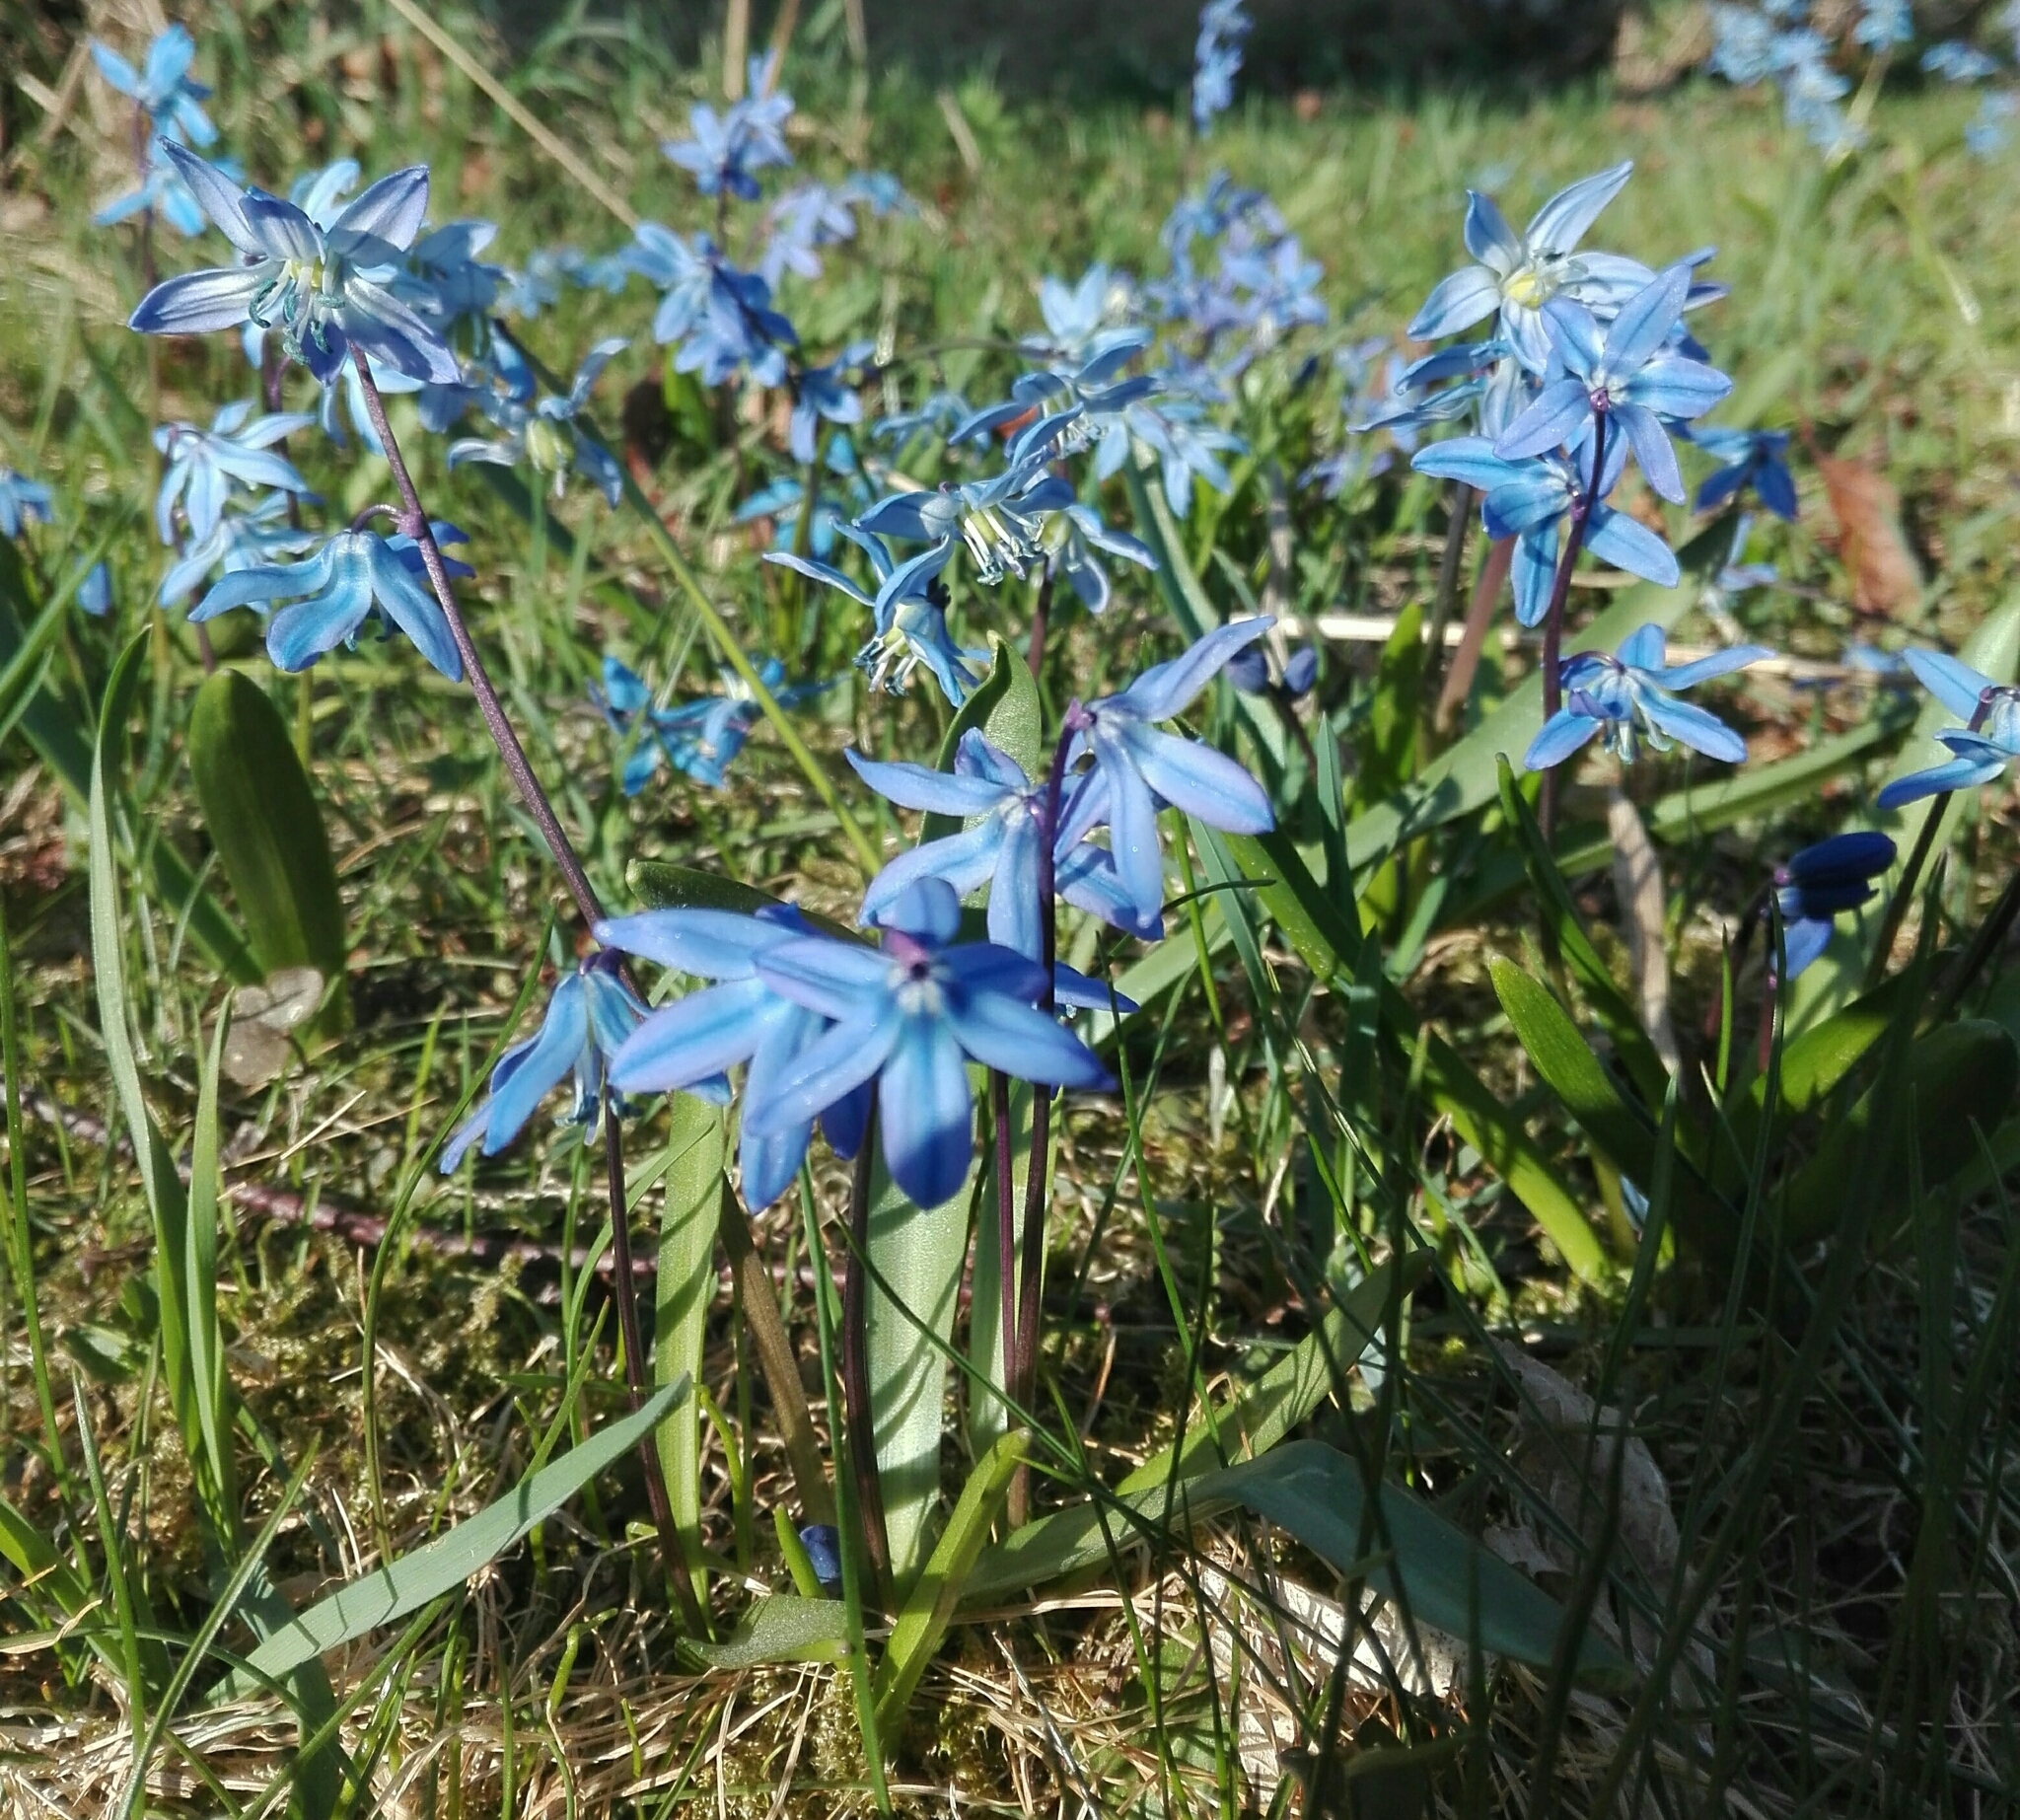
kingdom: Plantae
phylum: Tracheophyta
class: Liliopsida
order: Asparagales
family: Asparagaceae
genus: Scilla
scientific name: Scilla siberica
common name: Siberian squill
